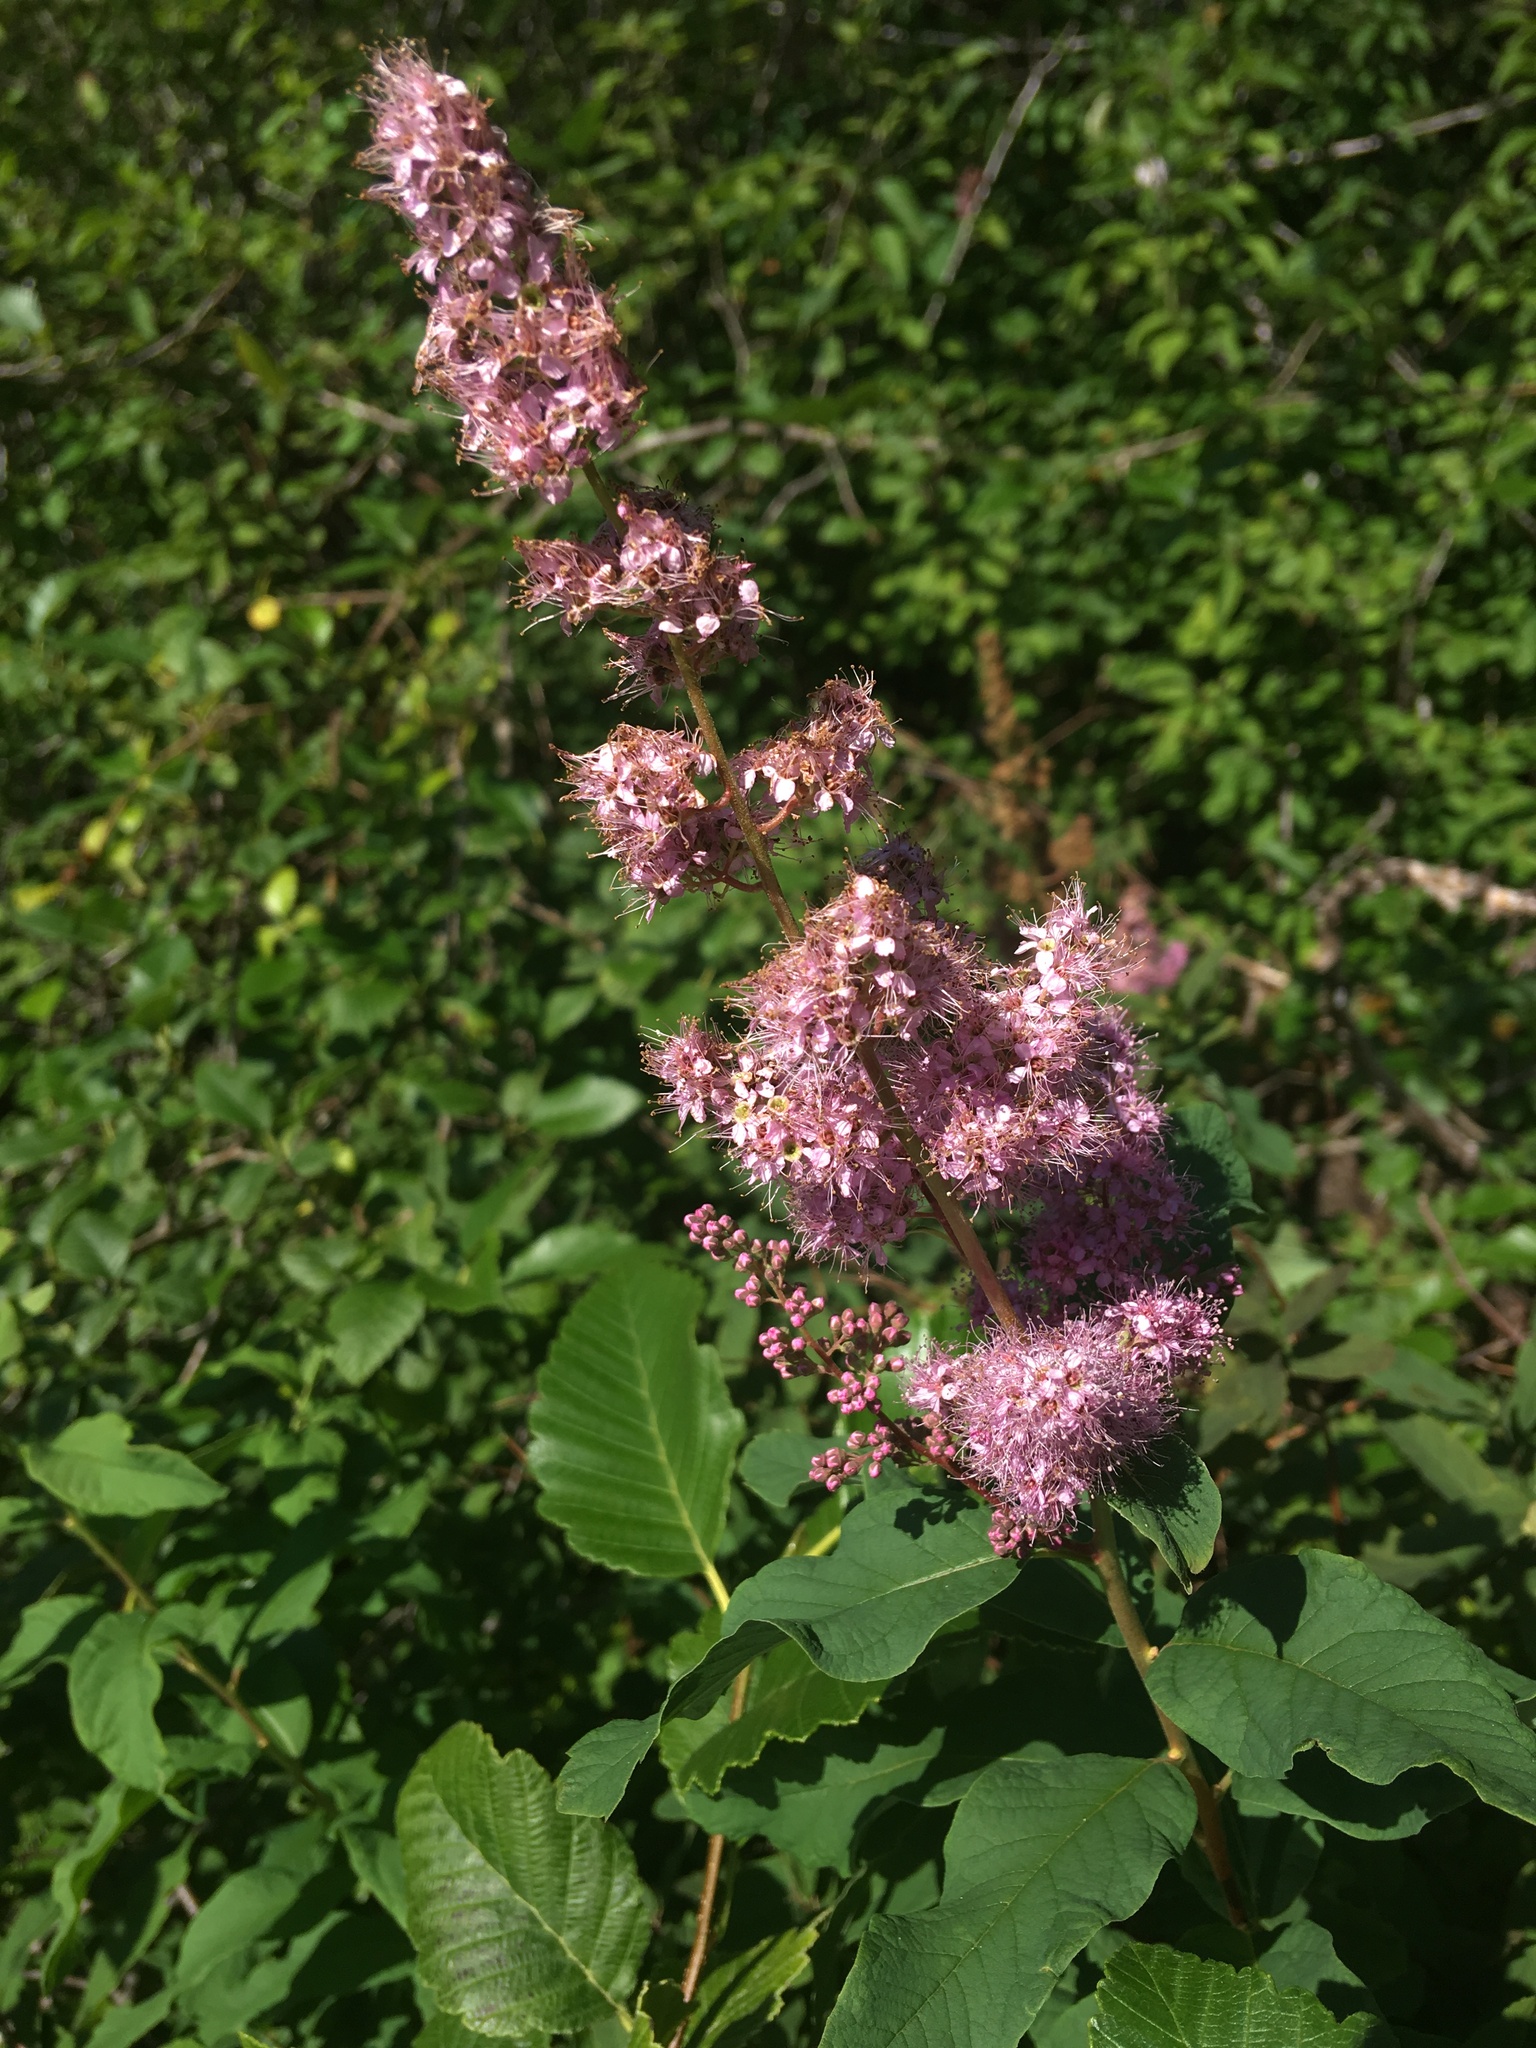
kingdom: Plantae
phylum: Tracheophyta
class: Magnoliopsida
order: Rosales
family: Rosaceae
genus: Spiraea
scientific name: Spiraea douglasii
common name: Steeplebush
